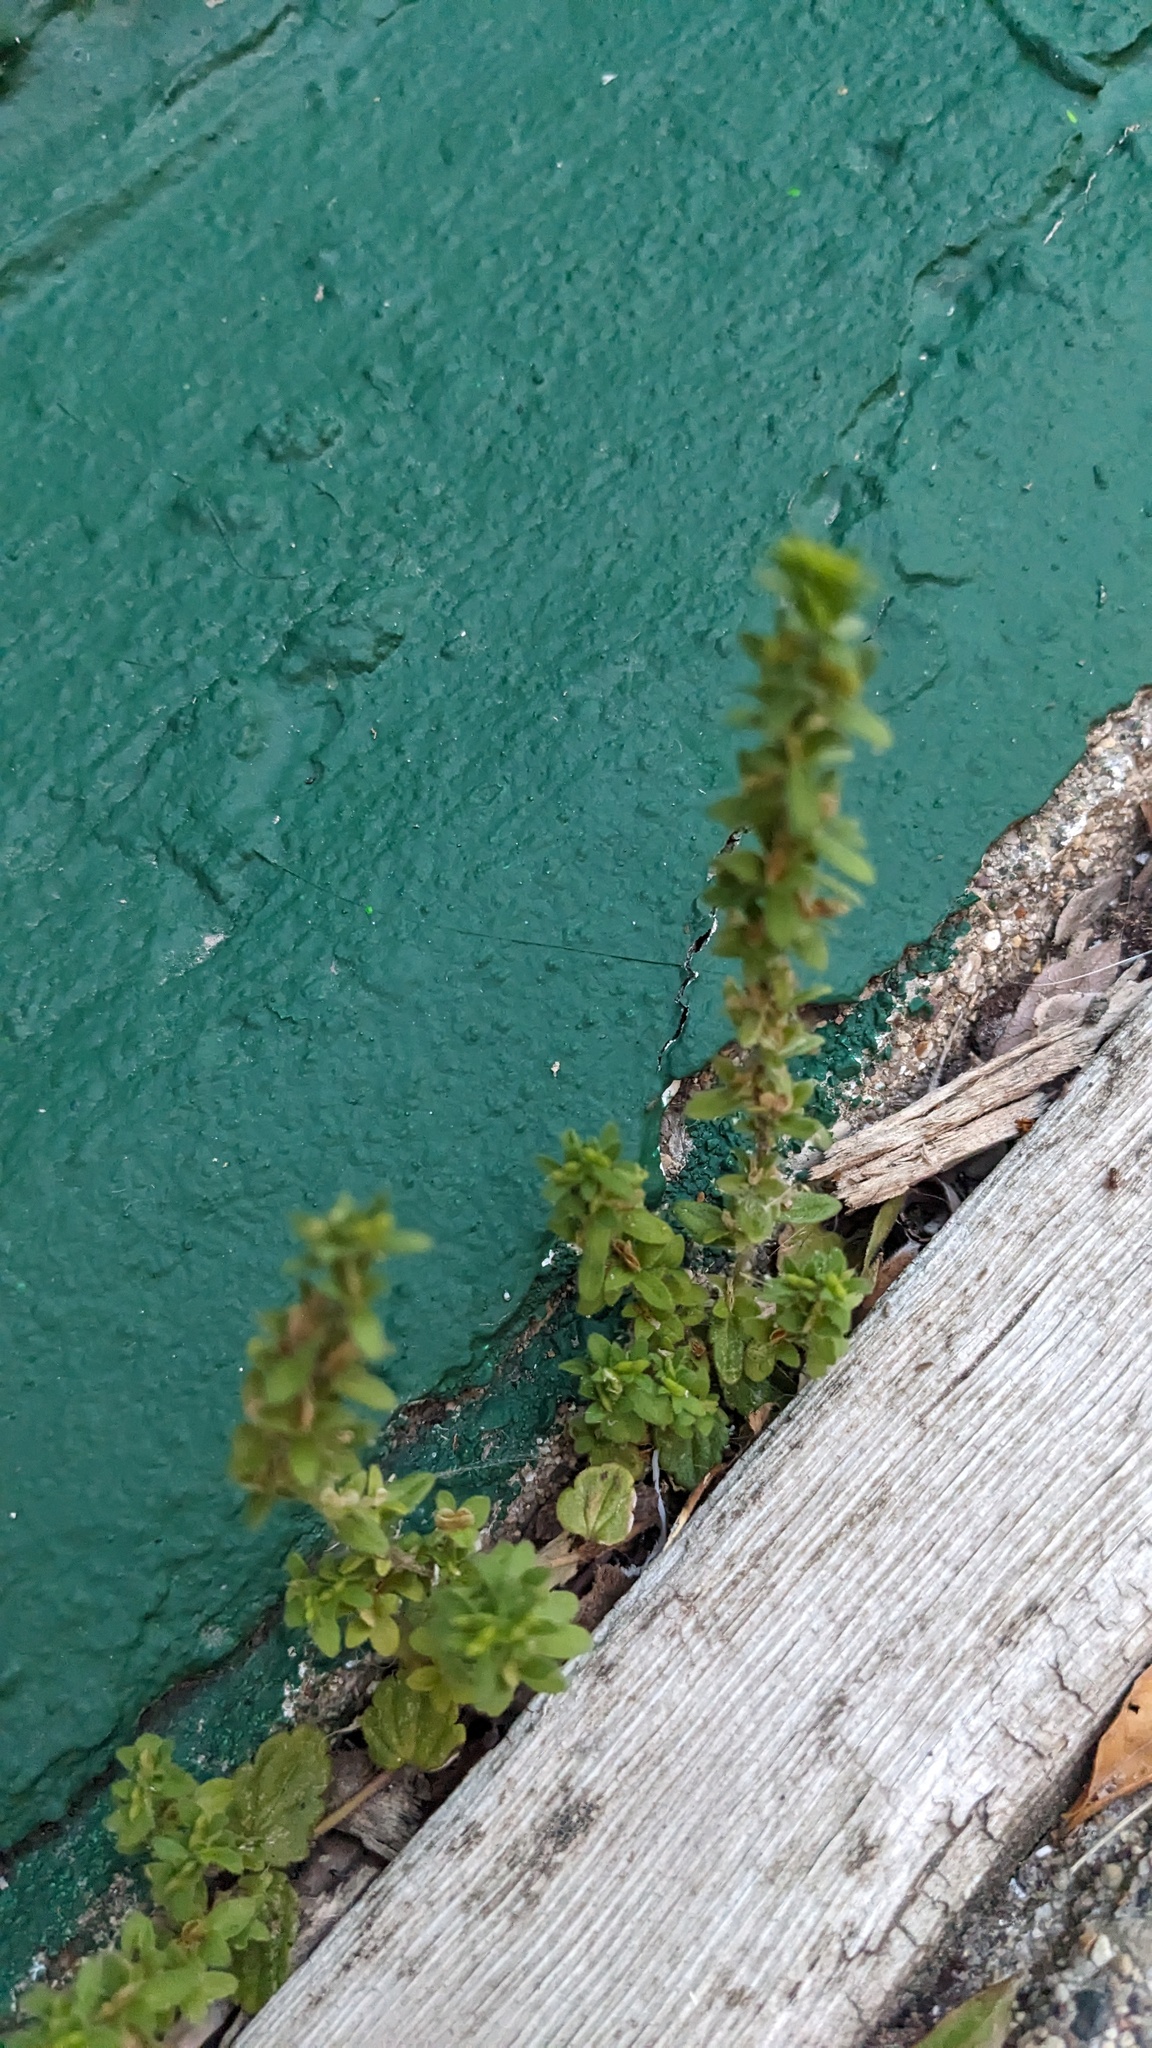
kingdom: Plantae
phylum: Tracheophyta
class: Magnoliopsida
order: Lamiales
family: Plantaginaceae
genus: Veronica
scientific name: Veronica arvensis
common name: Corn speedwell
